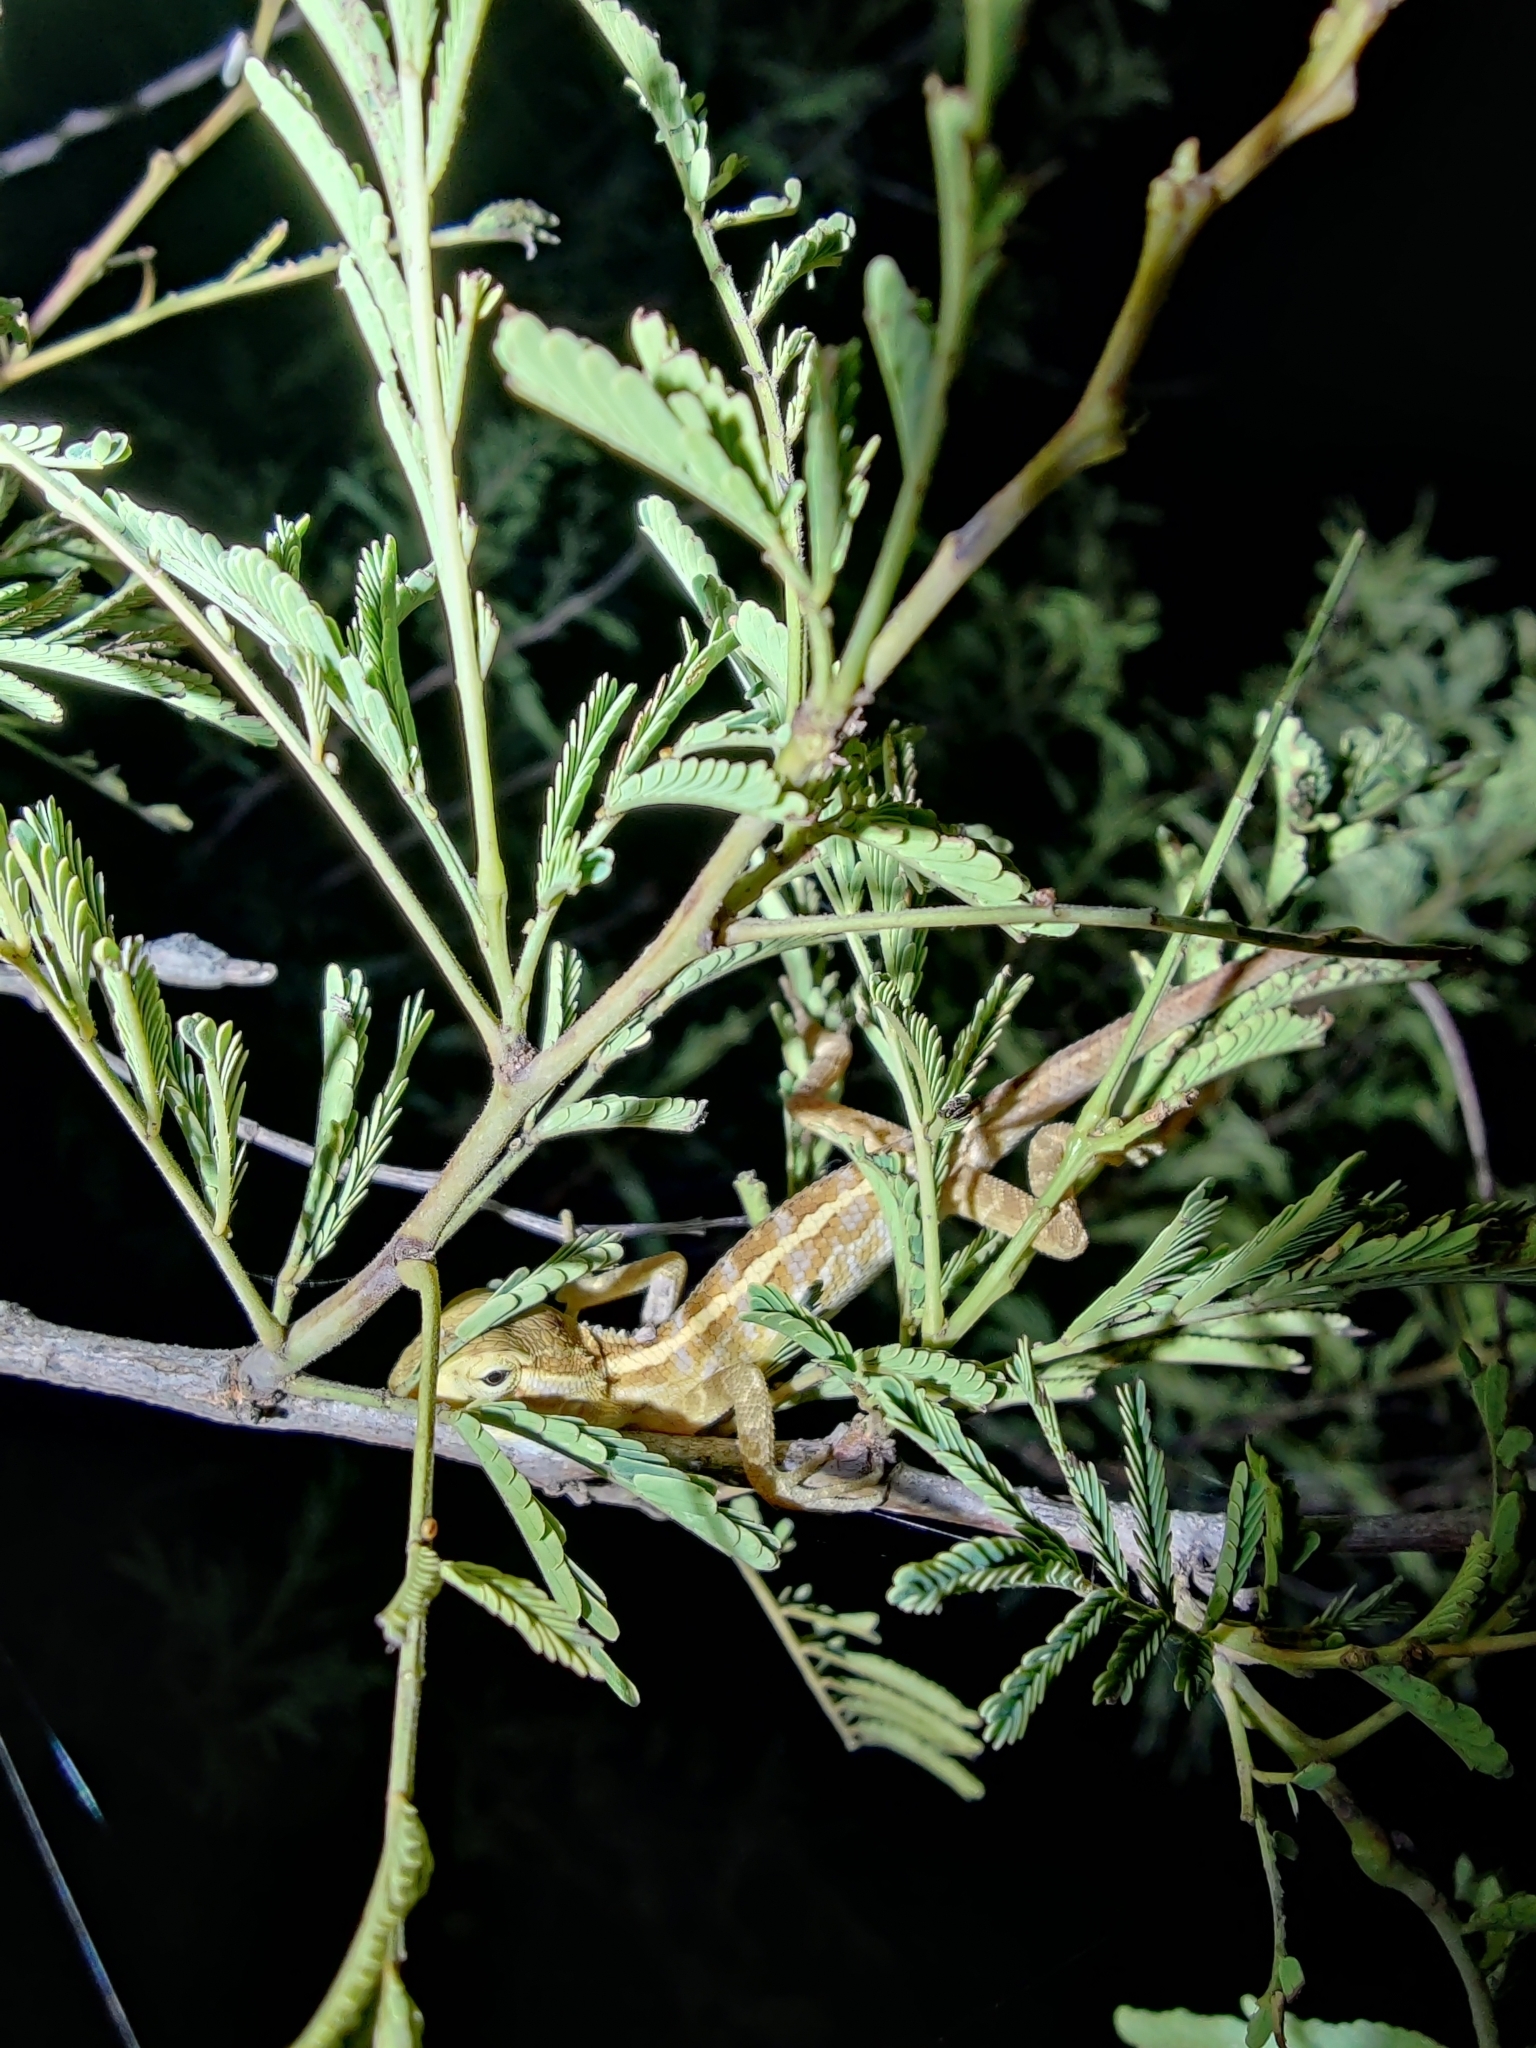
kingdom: Animalia
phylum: Chordata
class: Squamata
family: Agamidae
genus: Calotes
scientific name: Calotes versicolor
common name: Oriental garden lizard
